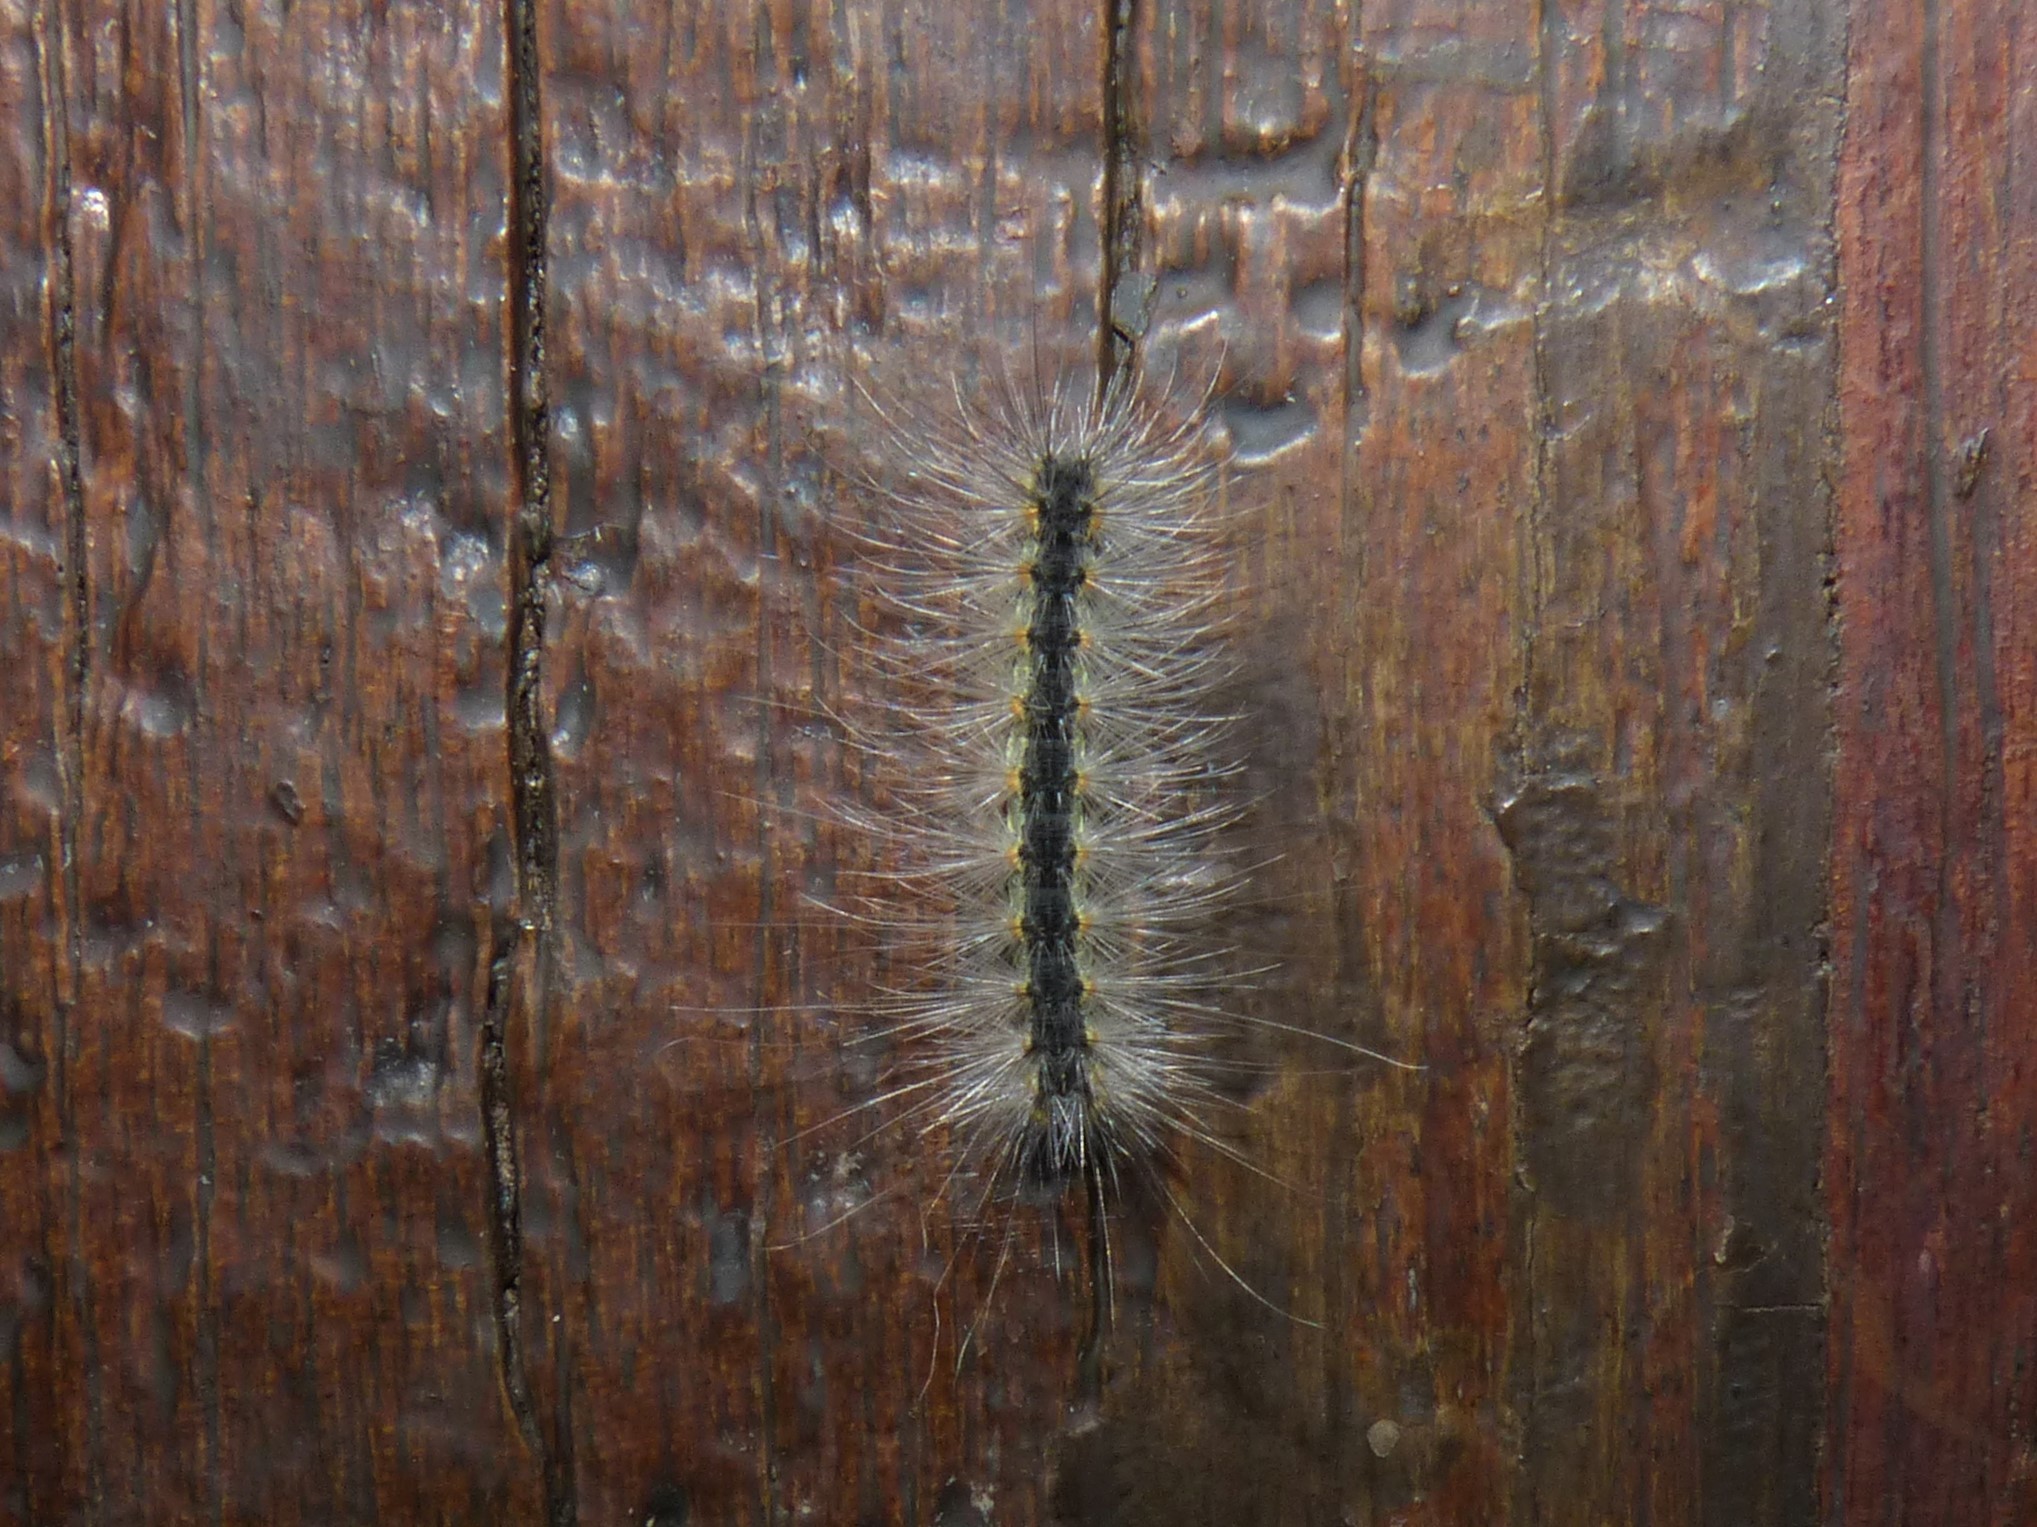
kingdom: Animalia
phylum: Arthropoda
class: Insecta
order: Lepidoptera
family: Erebidae
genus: Hyphantria
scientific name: Hyphantria cunea
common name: American white moth
